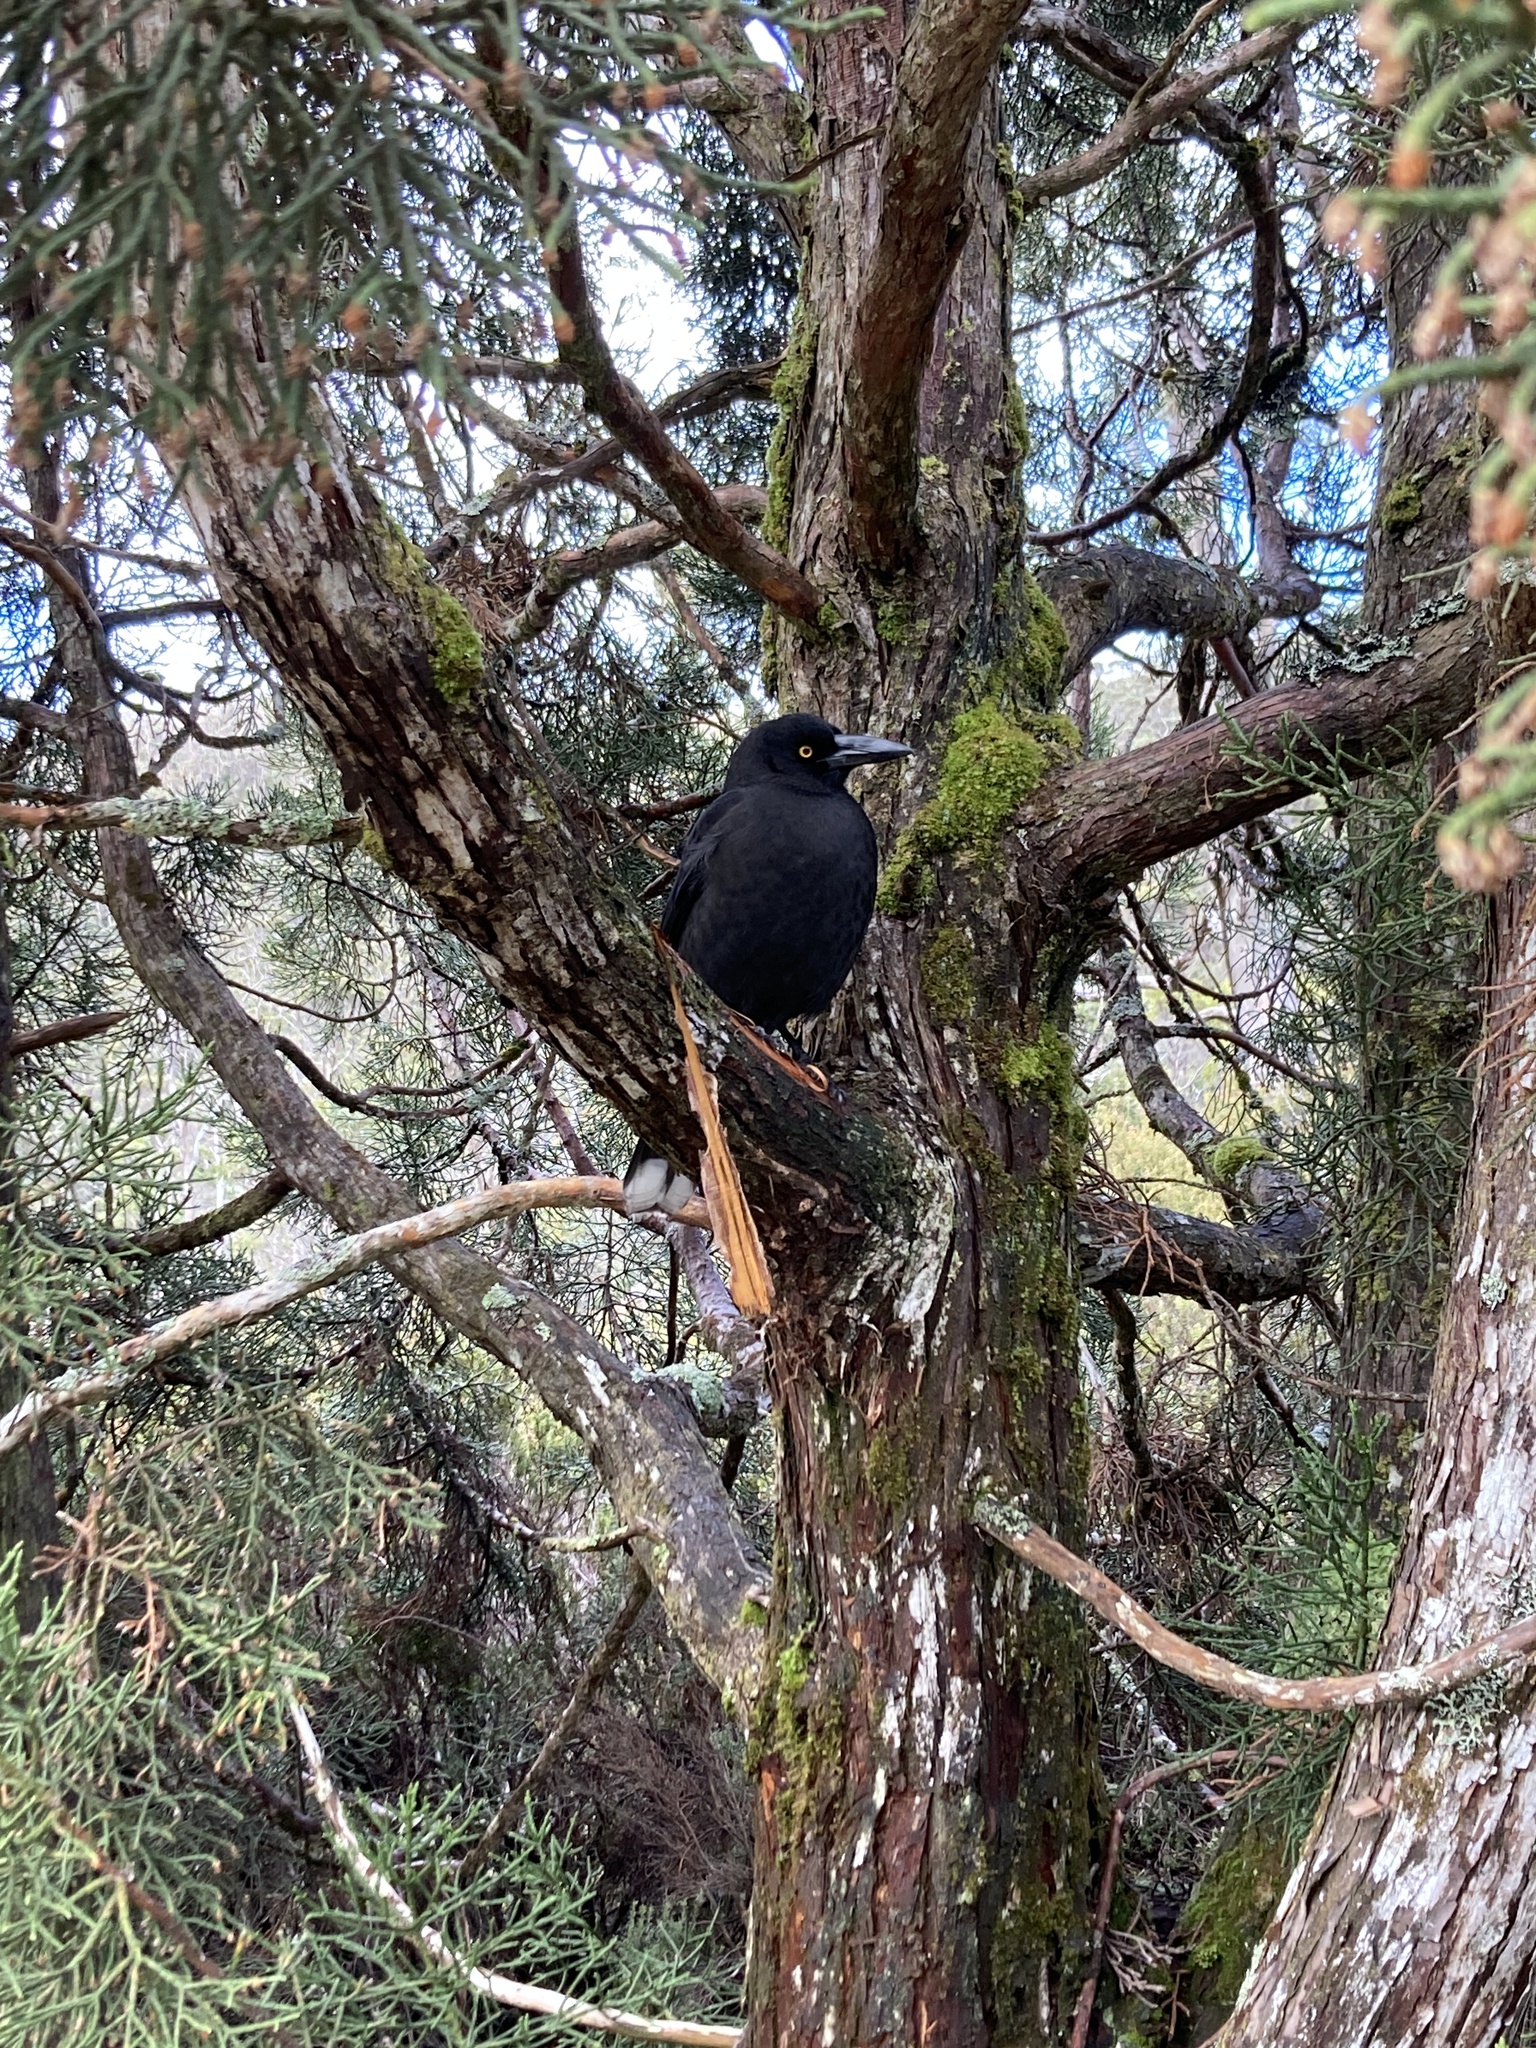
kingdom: Animalia
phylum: Chordata
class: Aves
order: Passeriformes
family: Cracticidae
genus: Strepera
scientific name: Strepera fuliginosa
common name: Black currawong
